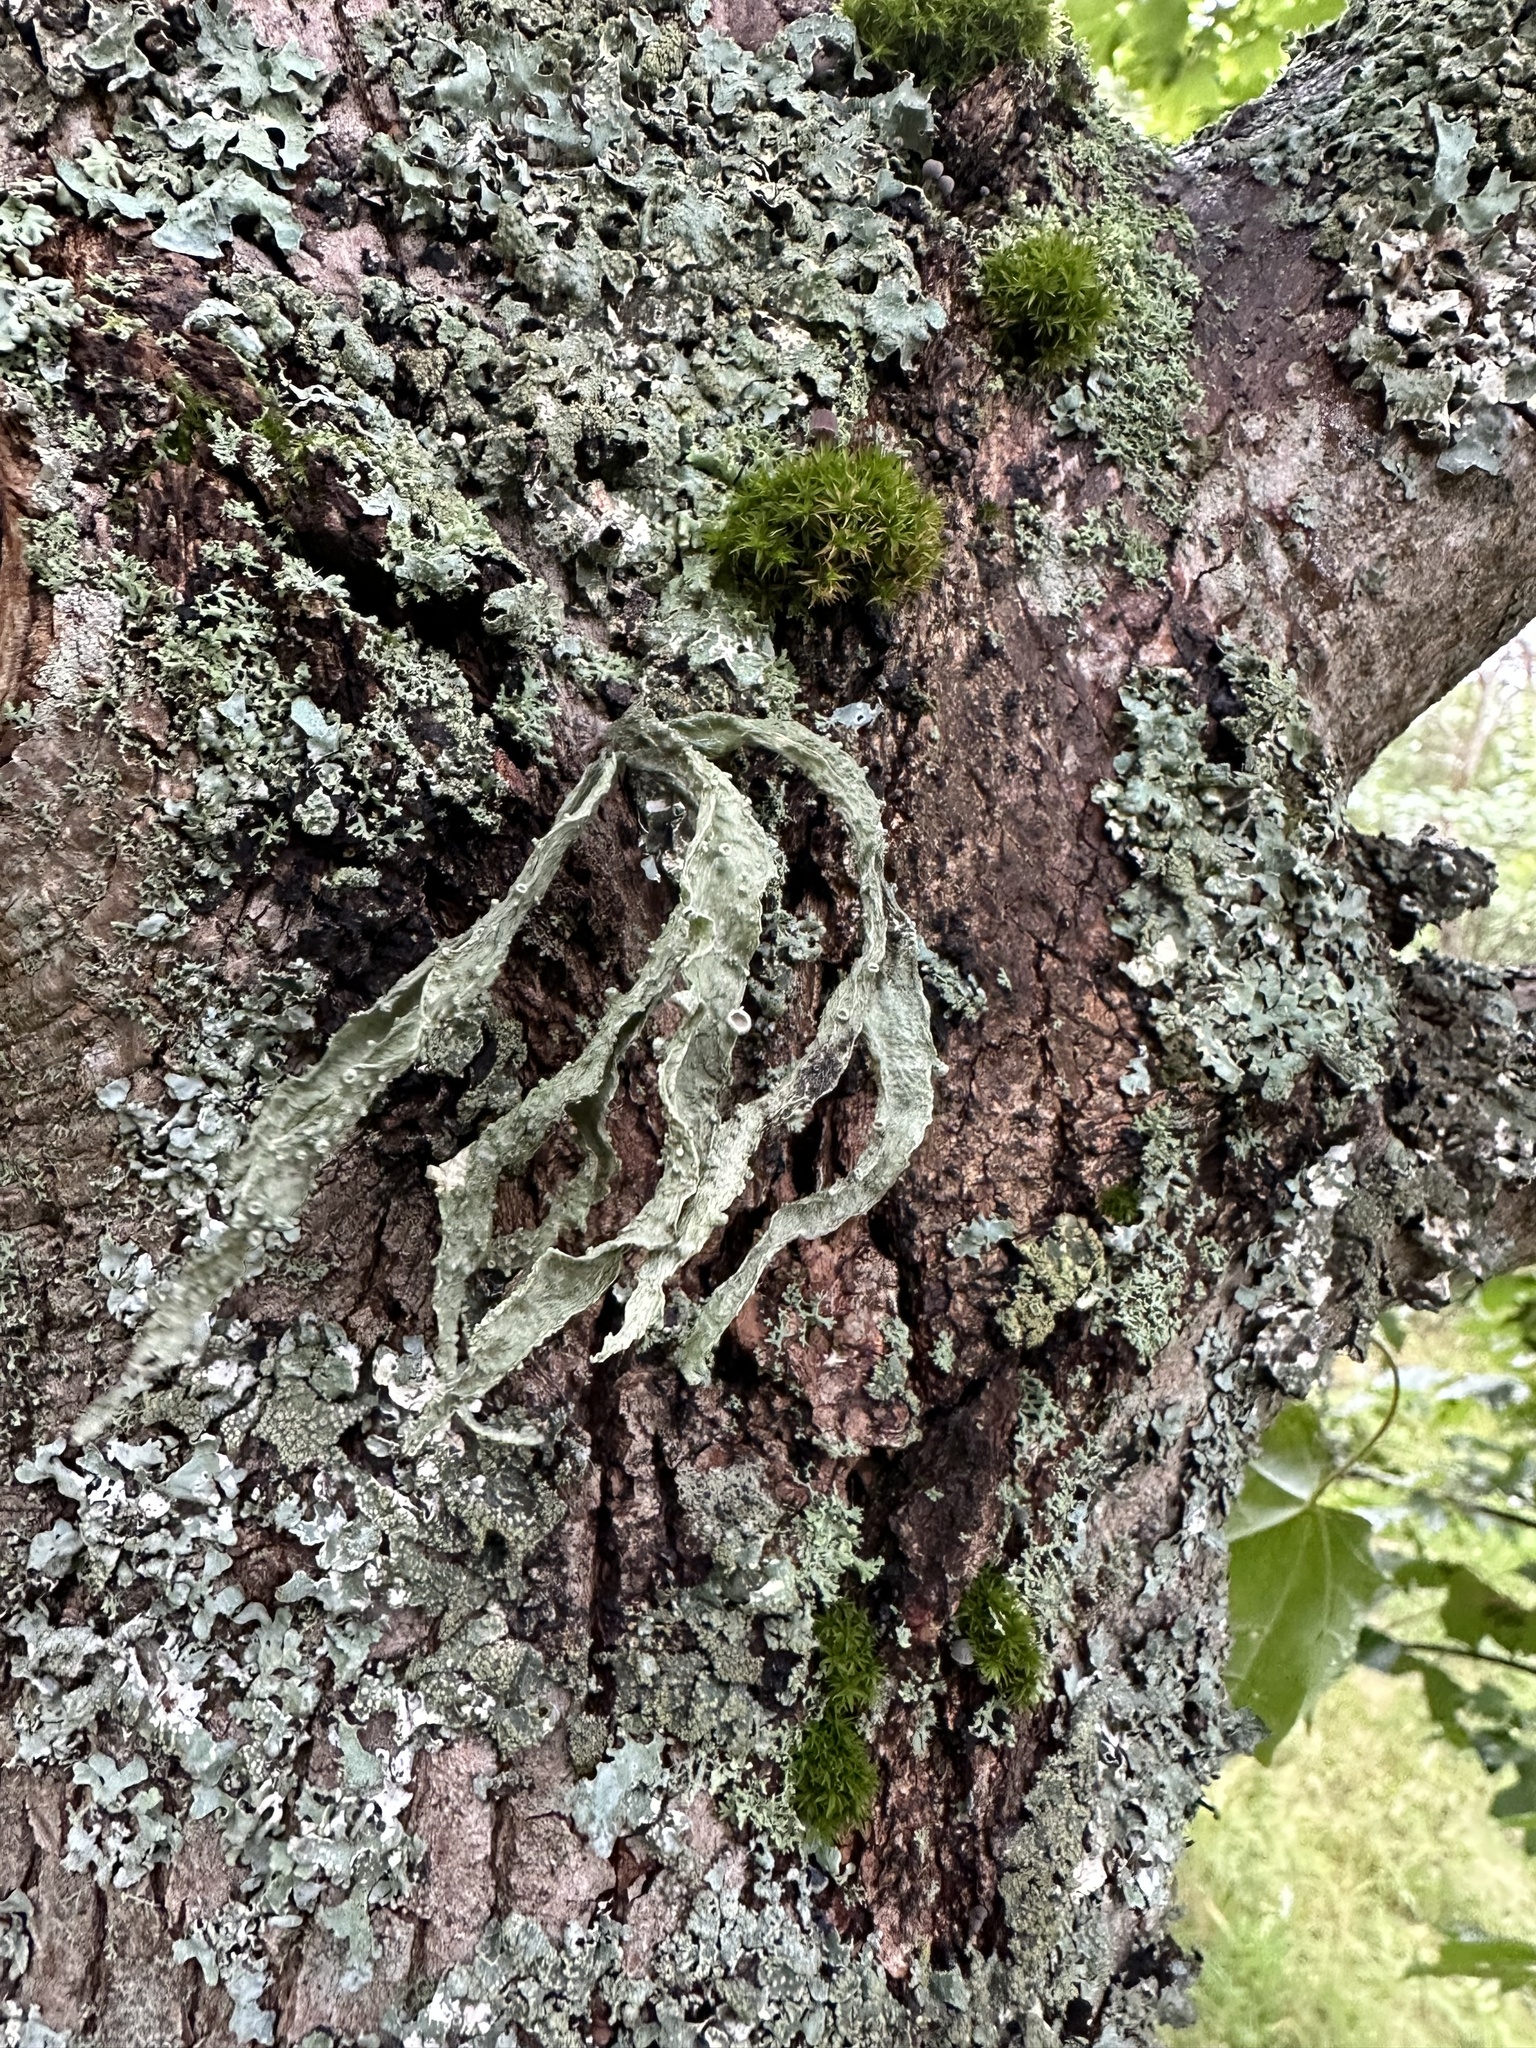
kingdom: Fungi
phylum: Ascomycota
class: Lecanoromycetes
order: Lecanorales
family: Ramalinaceae
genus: Ramalina
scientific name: Ramalina fraxinea
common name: Cartilage lichen
